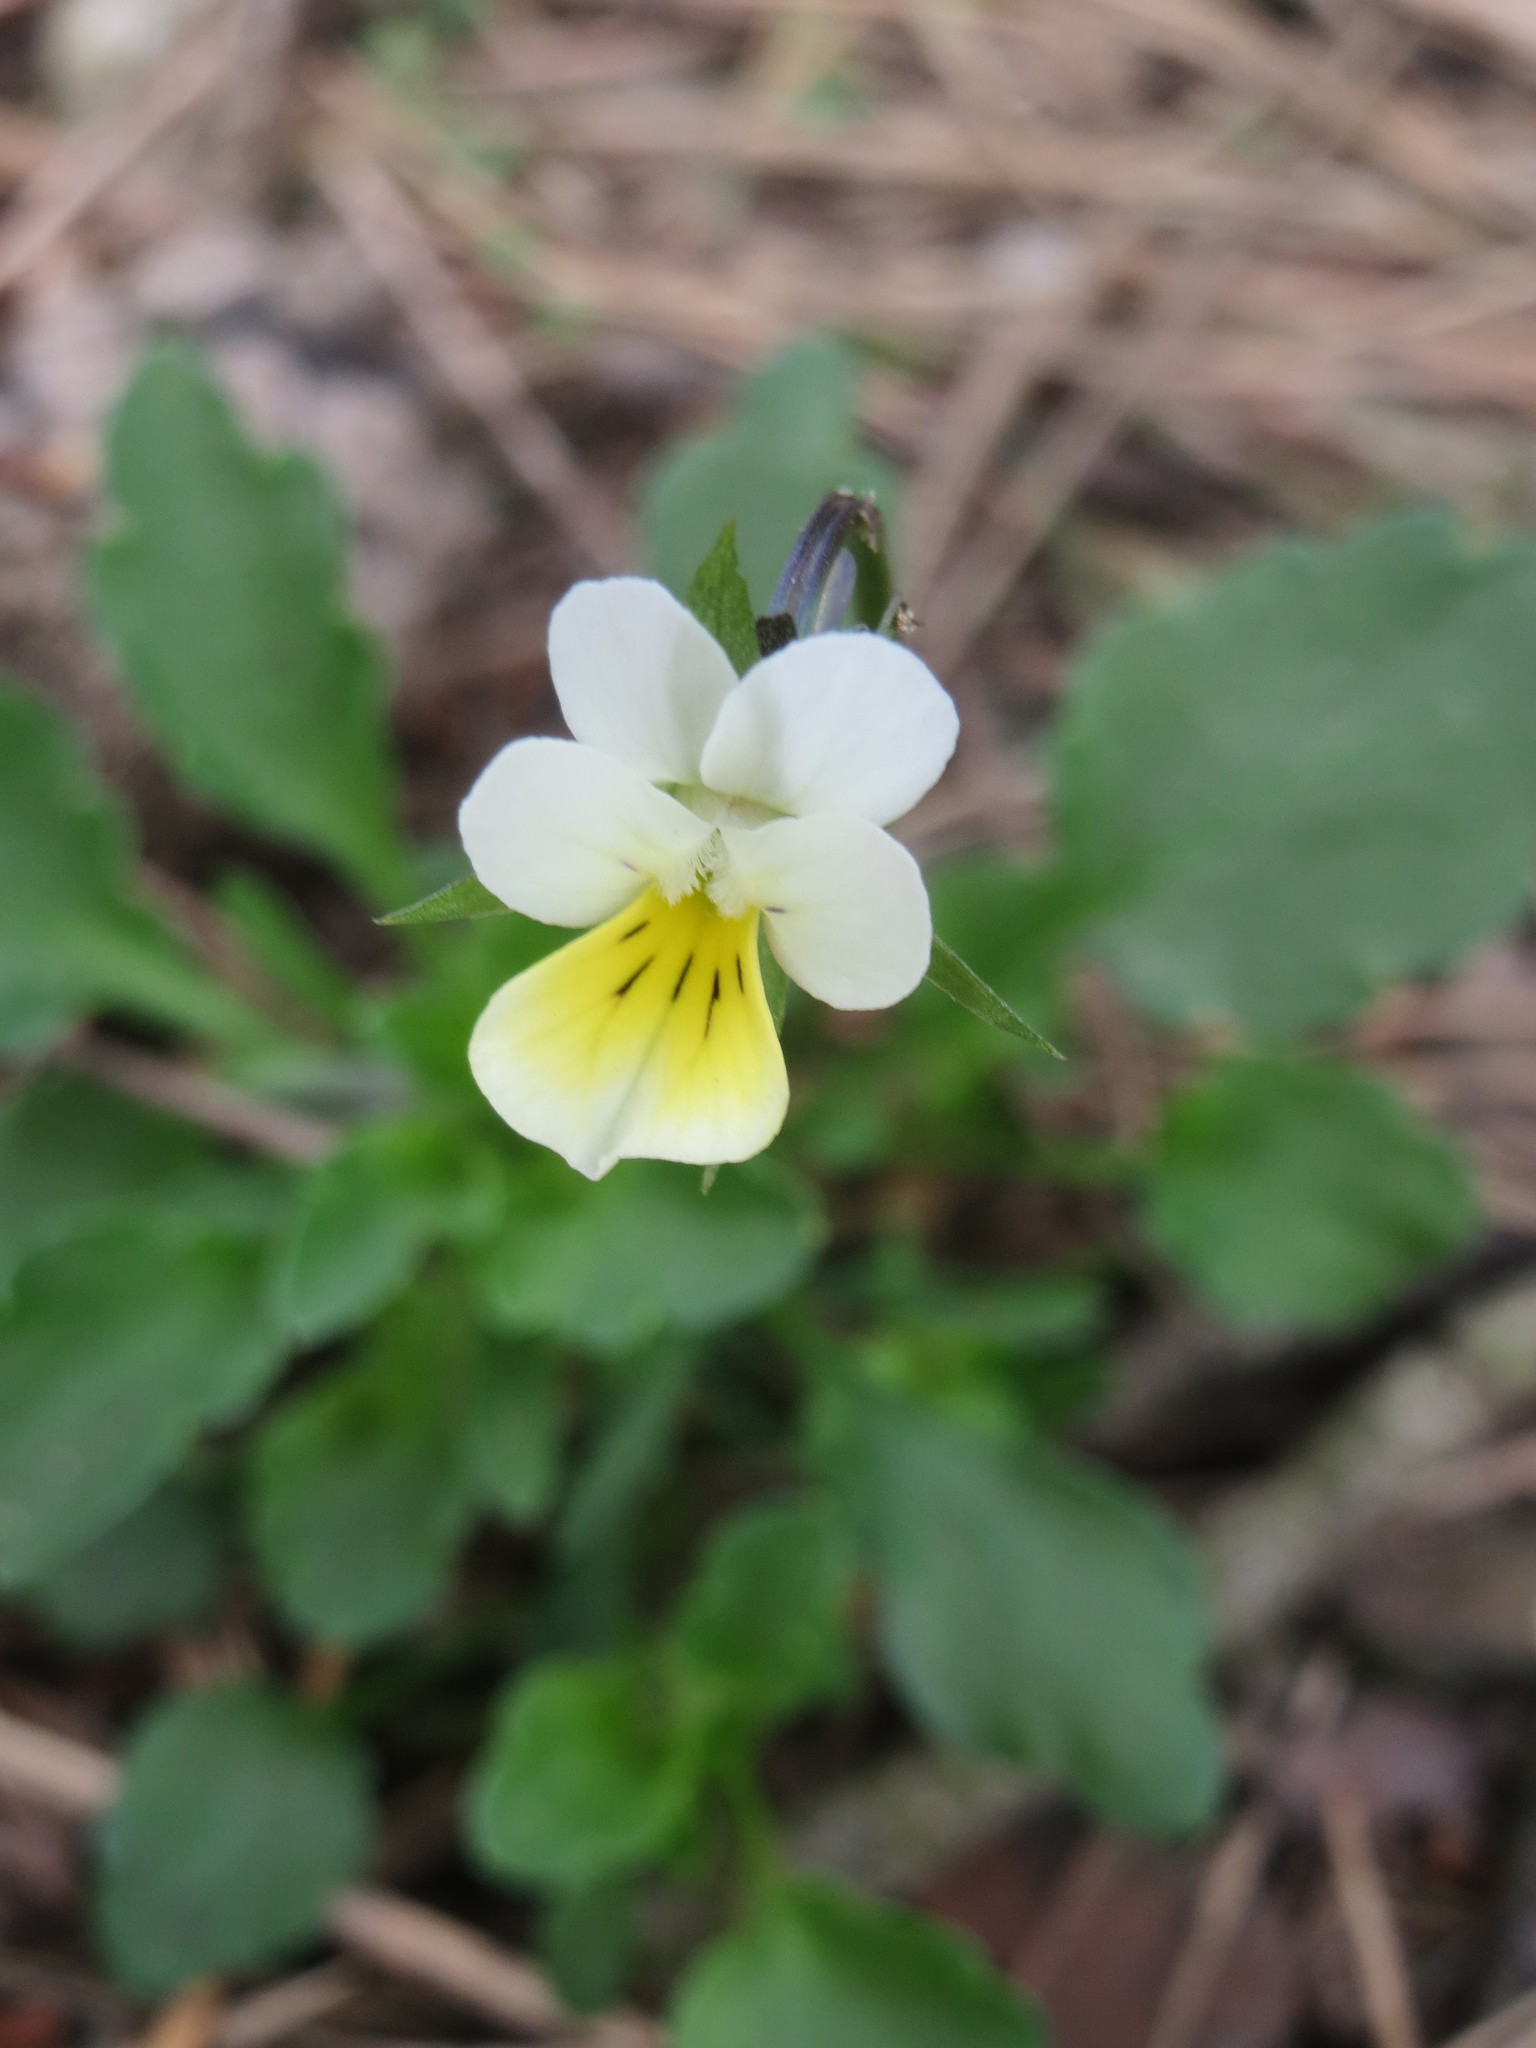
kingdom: Plantae
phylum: Tracheophyta
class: Magnoliopsida
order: Malpighiales
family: Violaceae
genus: Viola
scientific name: Viola arvensis
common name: Field pansy
